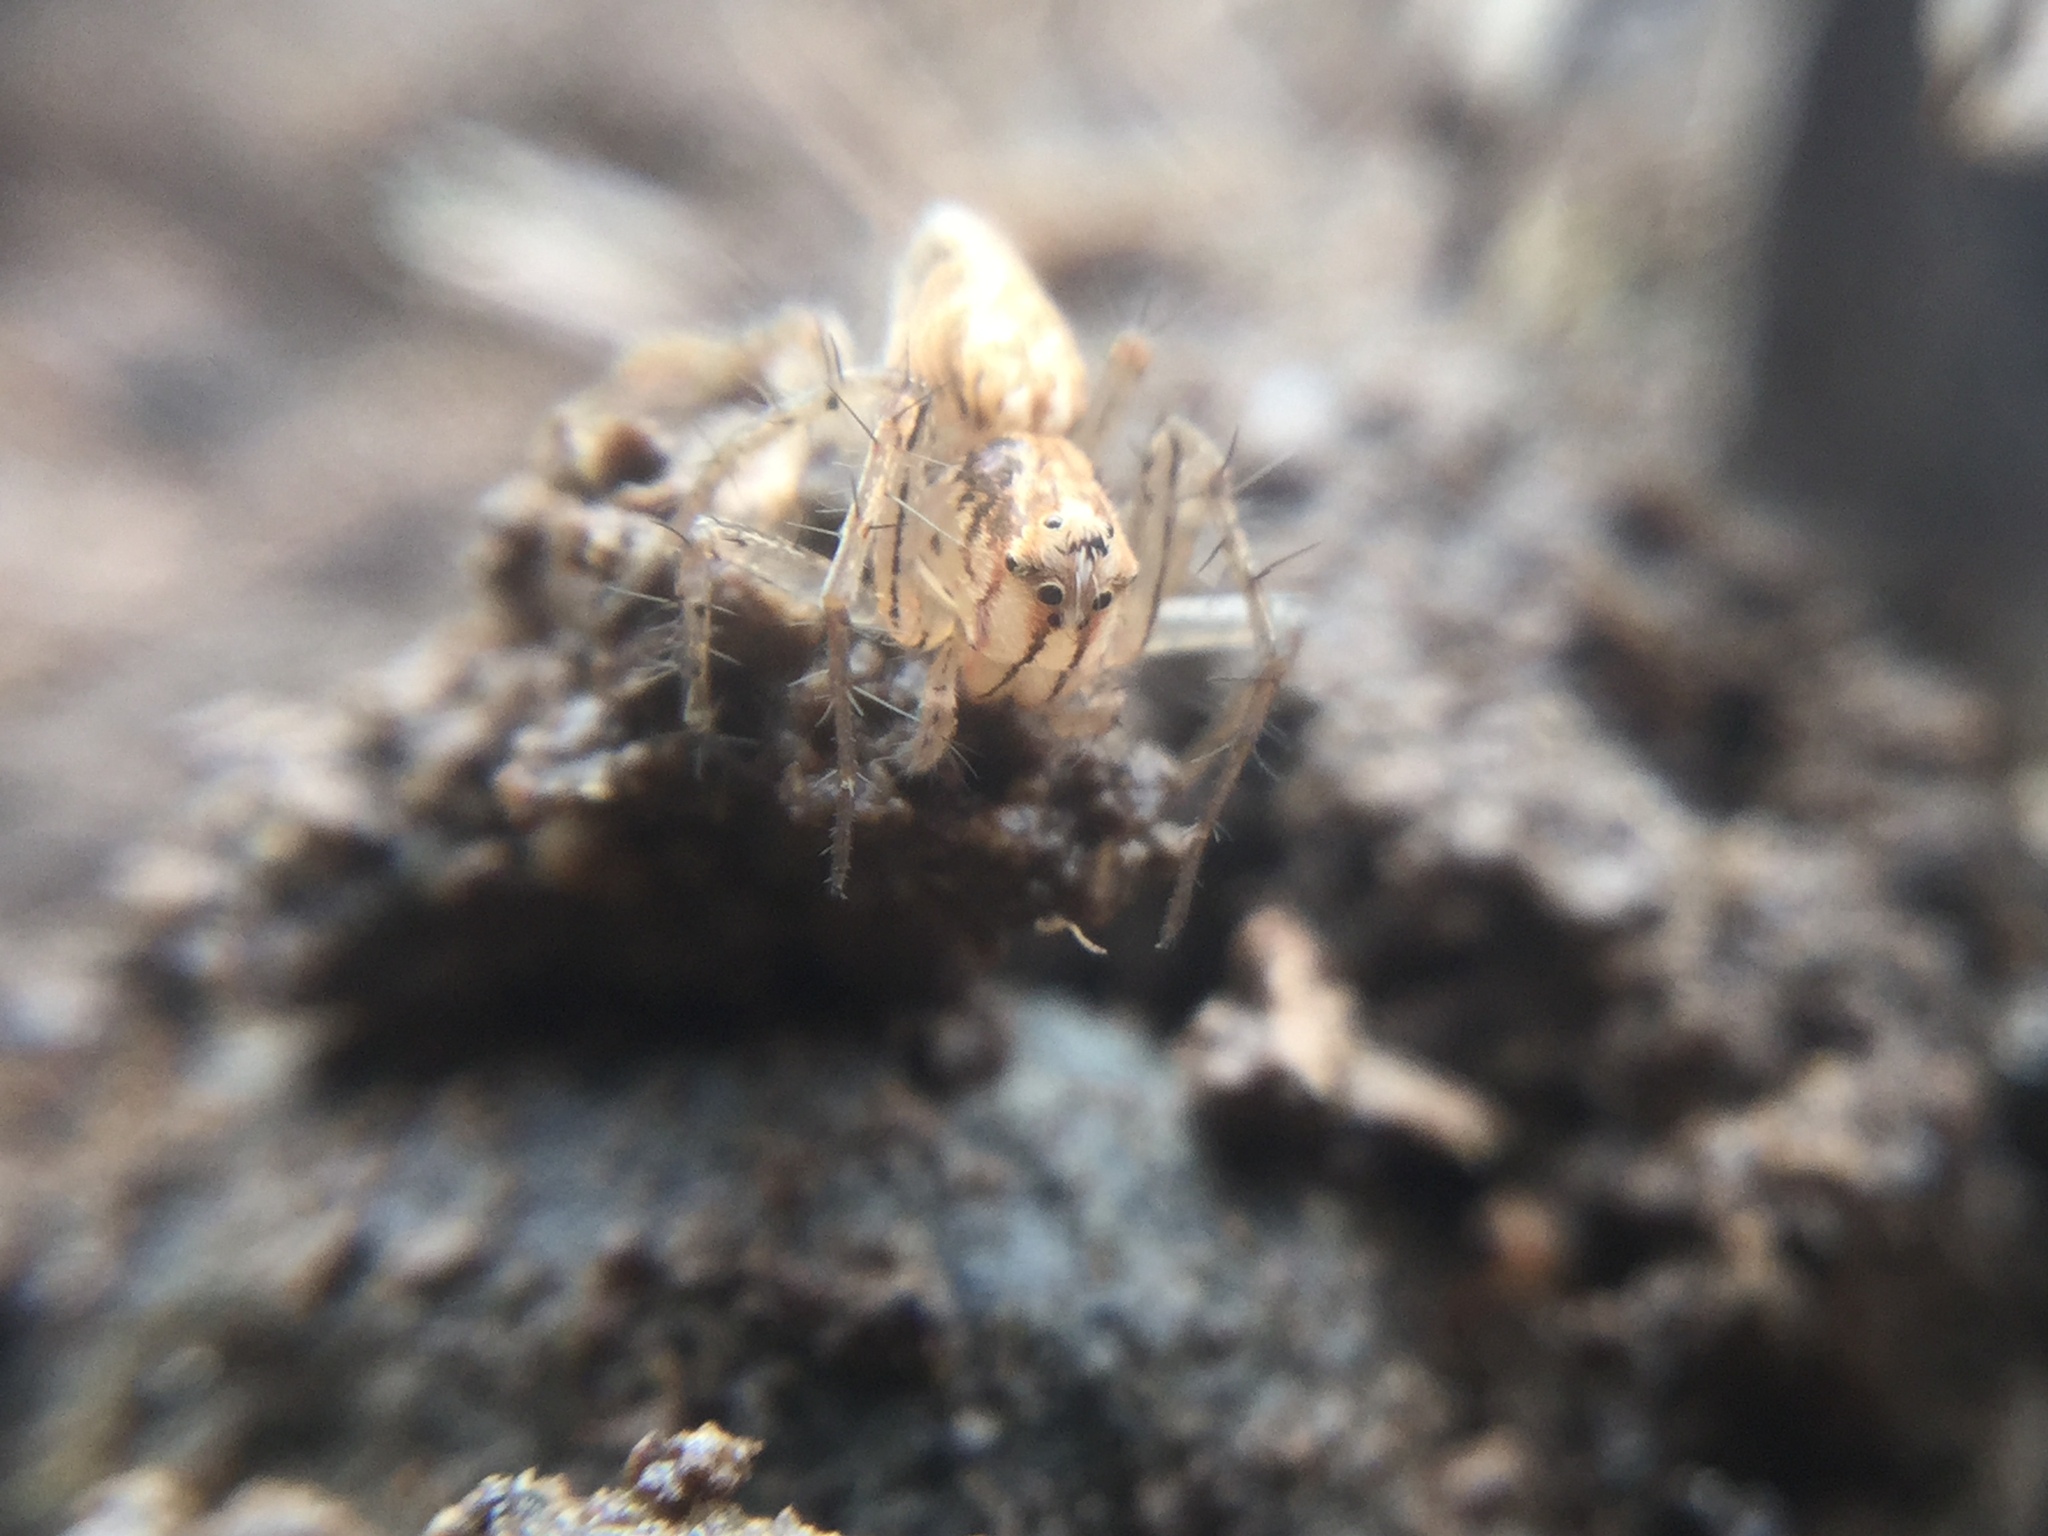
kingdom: Animalia
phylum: Arthropoda
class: Arachnida
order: Araneae
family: Oxyopidae
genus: Oxyopes
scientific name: Oxyopes aglossus
